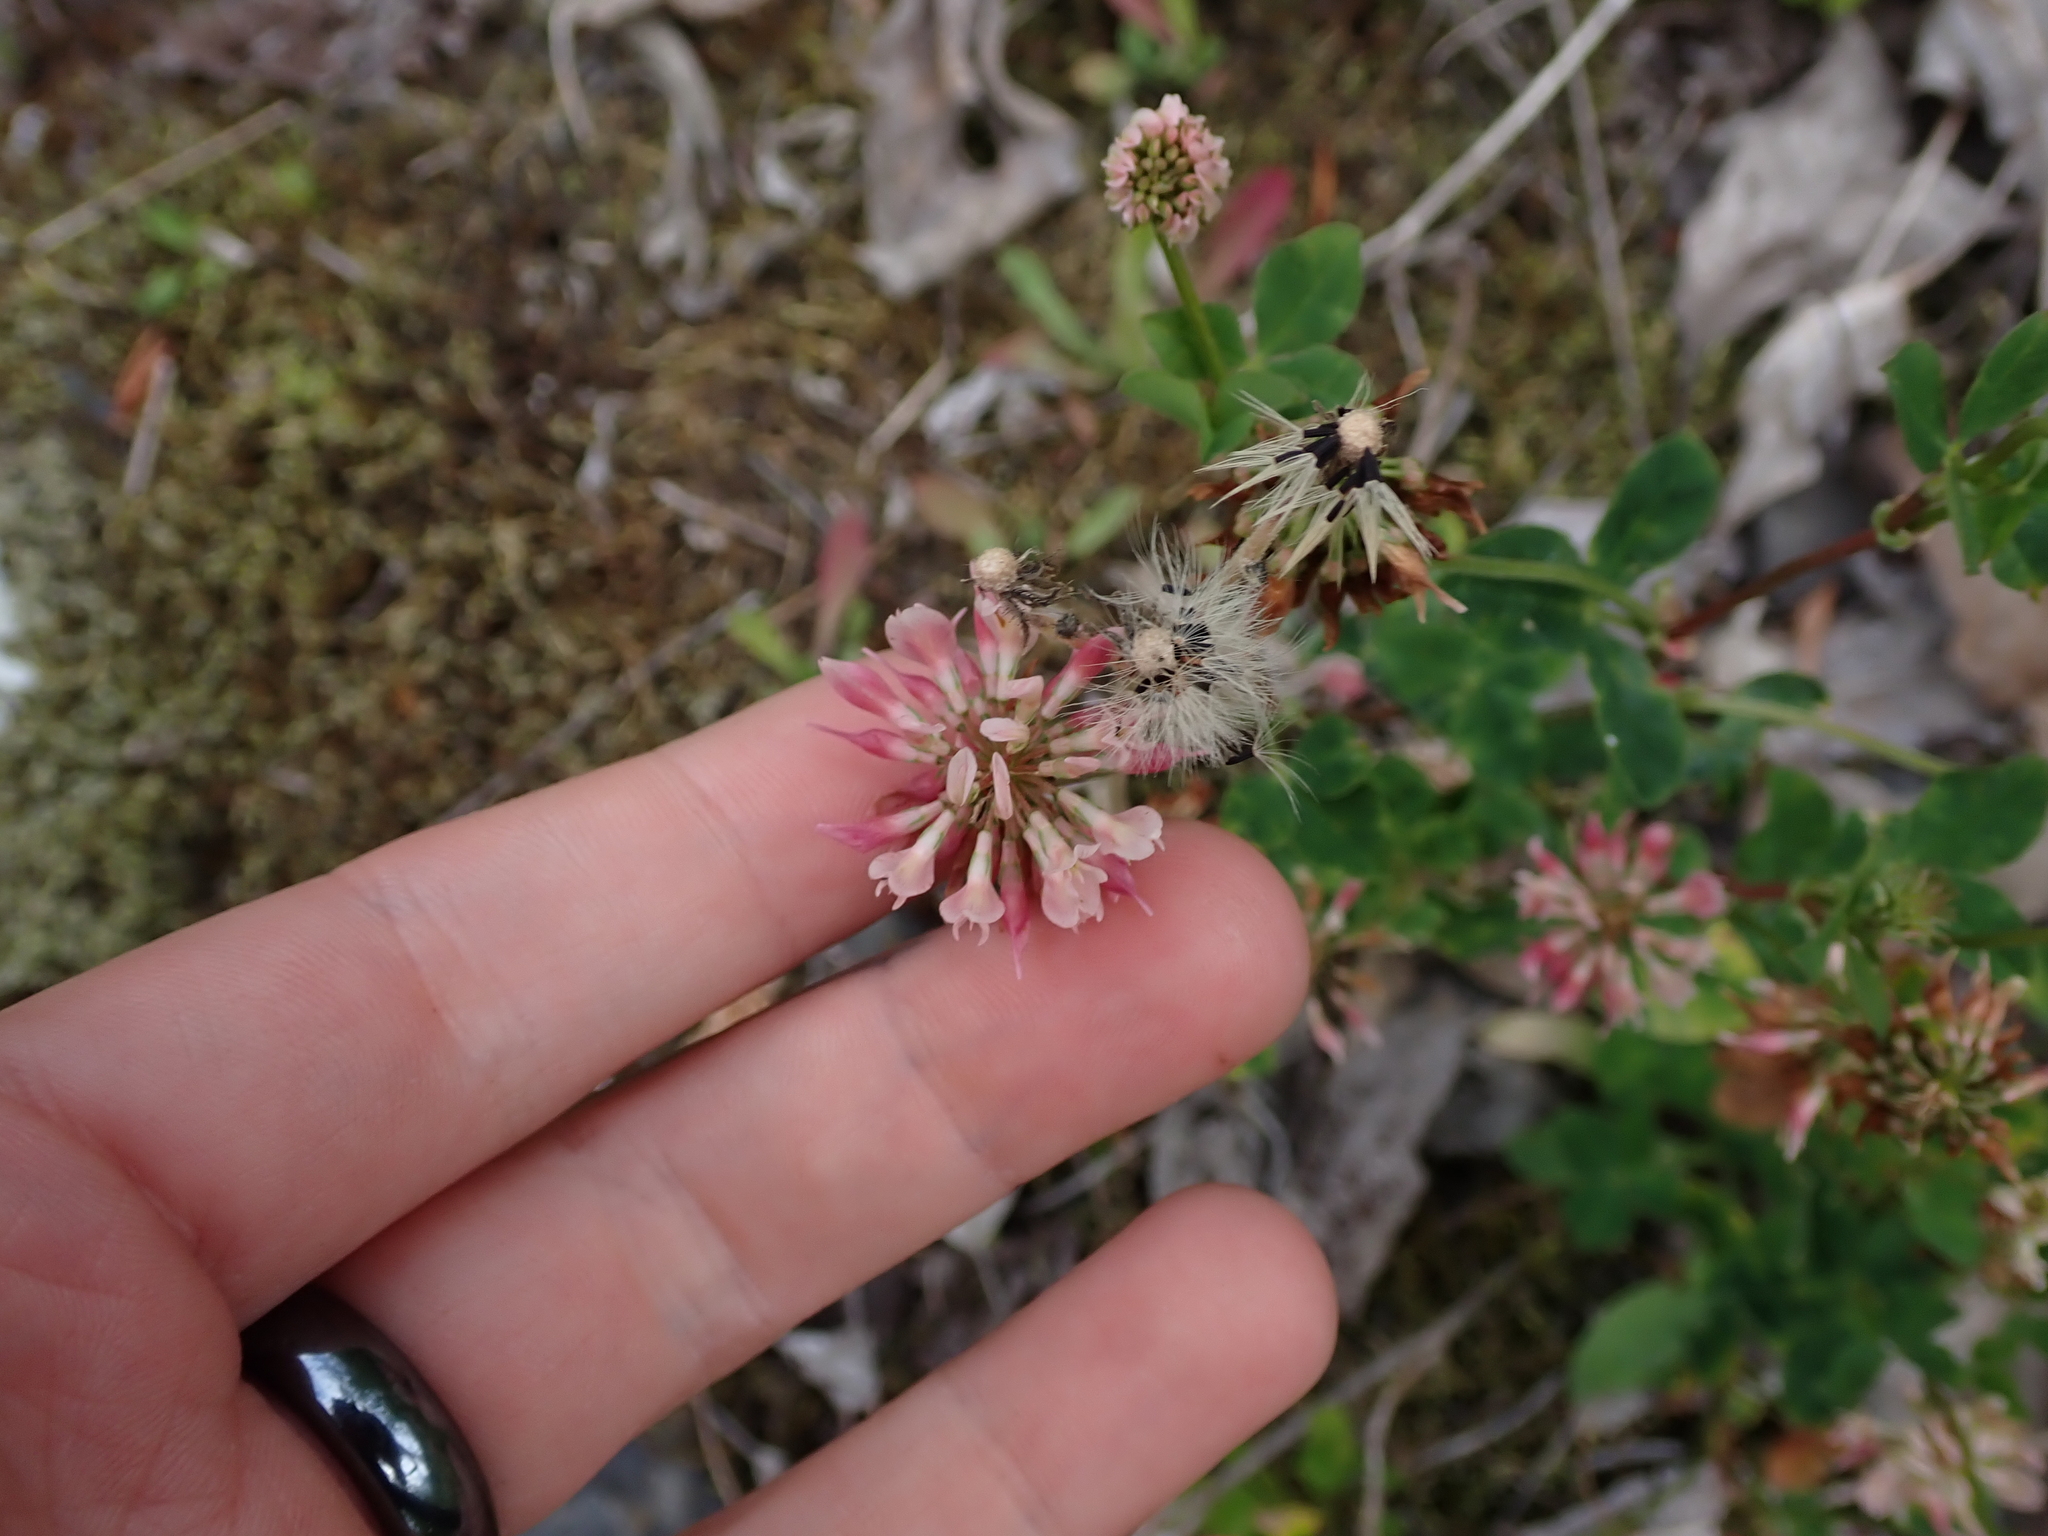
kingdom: Plantae
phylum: Tracheophyta
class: Magnoliopsida
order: Fabales
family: Fabaceae
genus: Trifolium
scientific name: Trifolium hybridum
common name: Alsike clover
